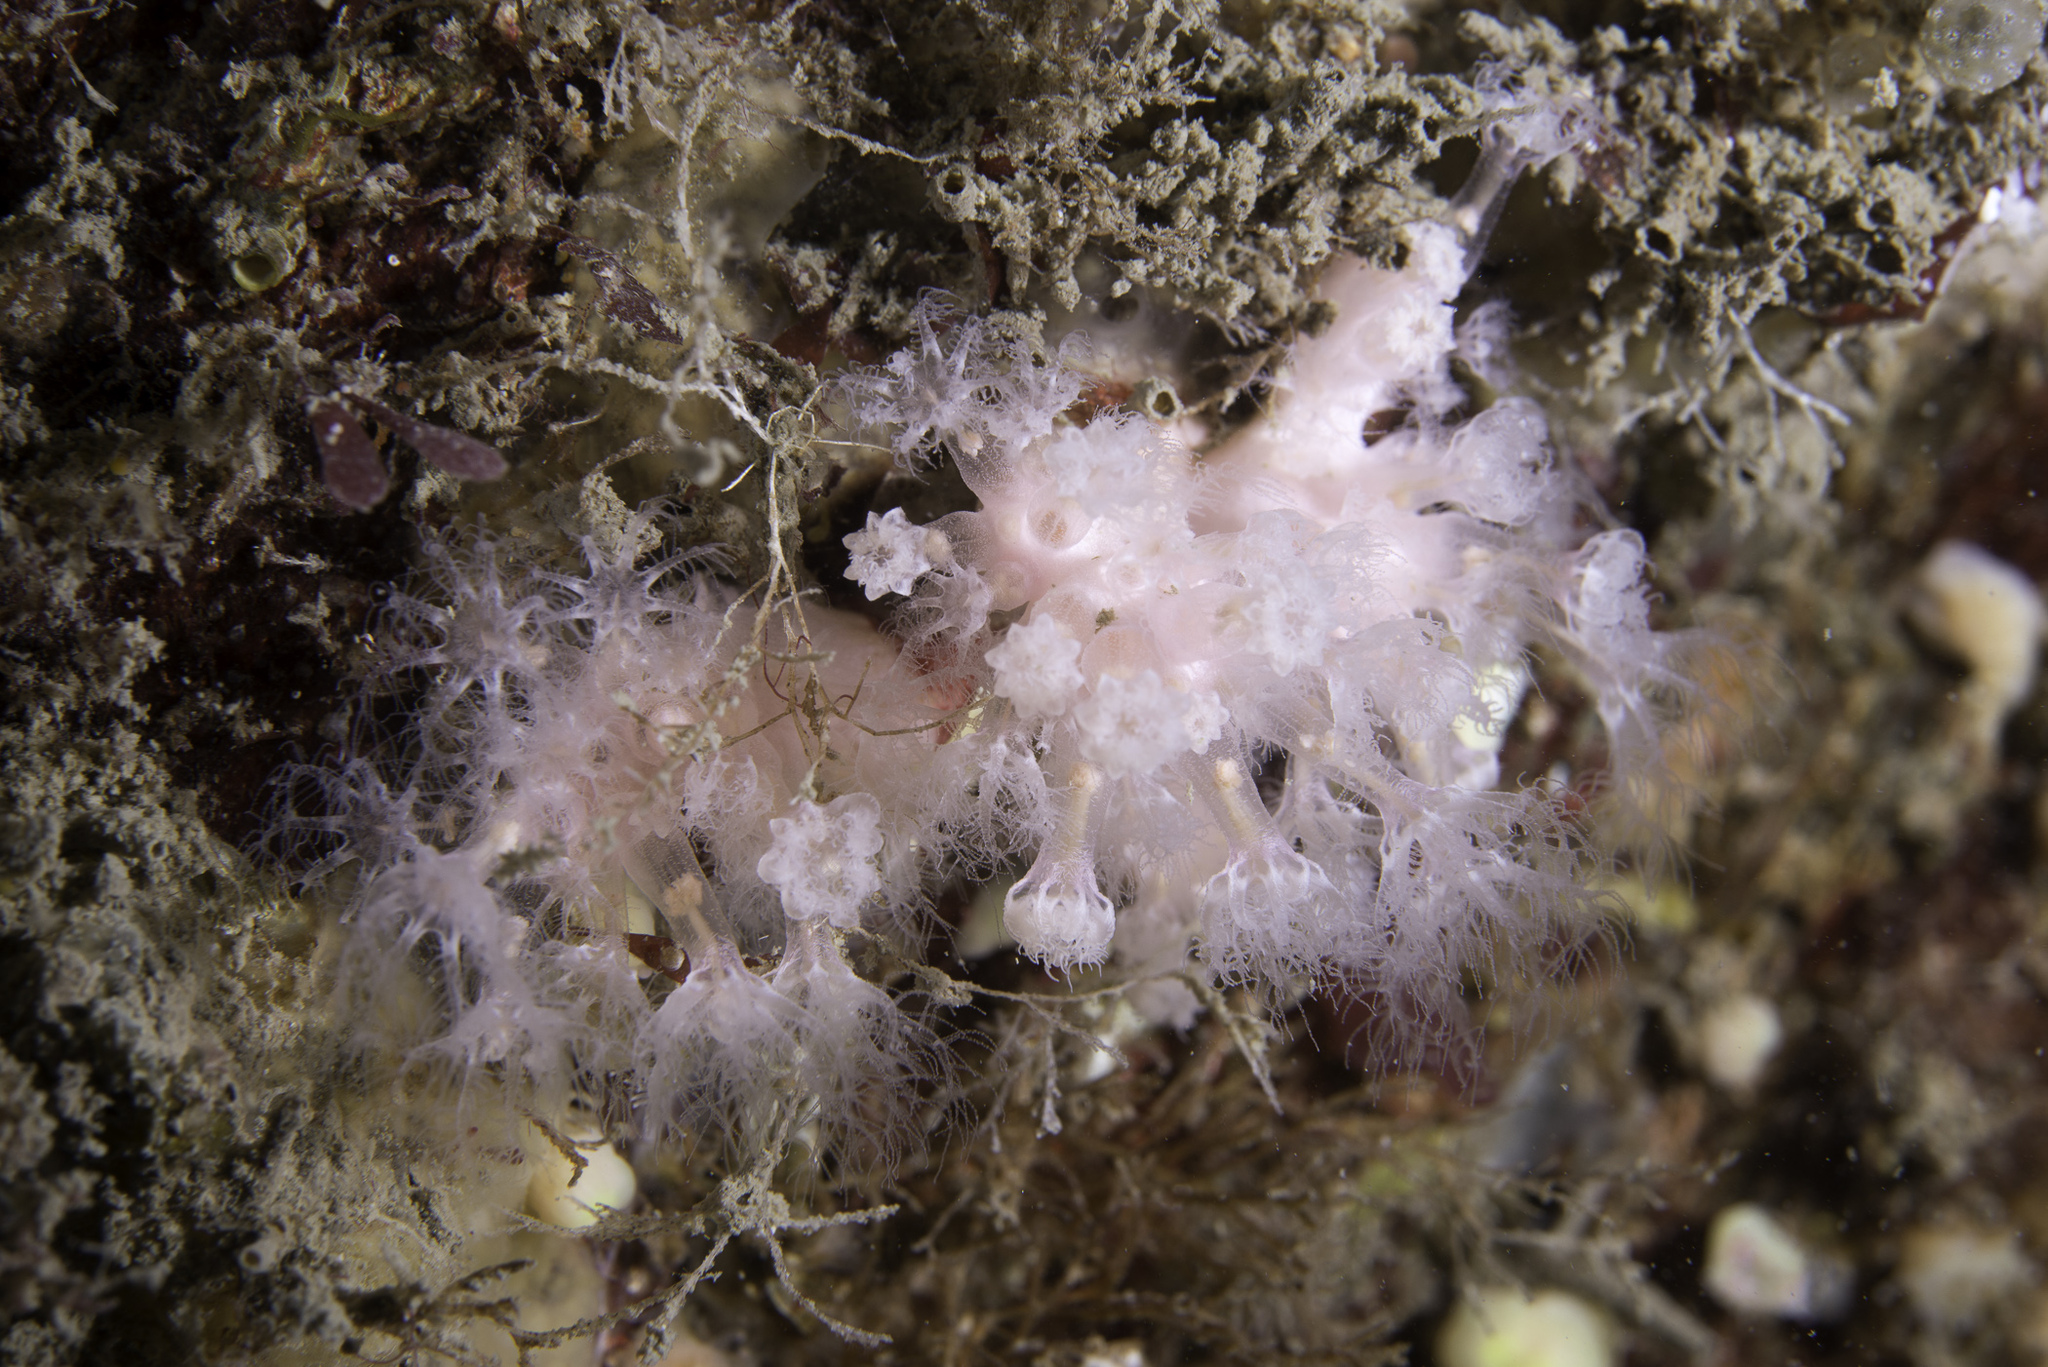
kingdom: Animalia
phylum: Cnidaria
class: Anthozoa
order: Malacalcyonacea
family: Alcyoniidae
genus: Alcyonium
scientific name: Alcyonium hibernicum
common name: Pink sea fingers
